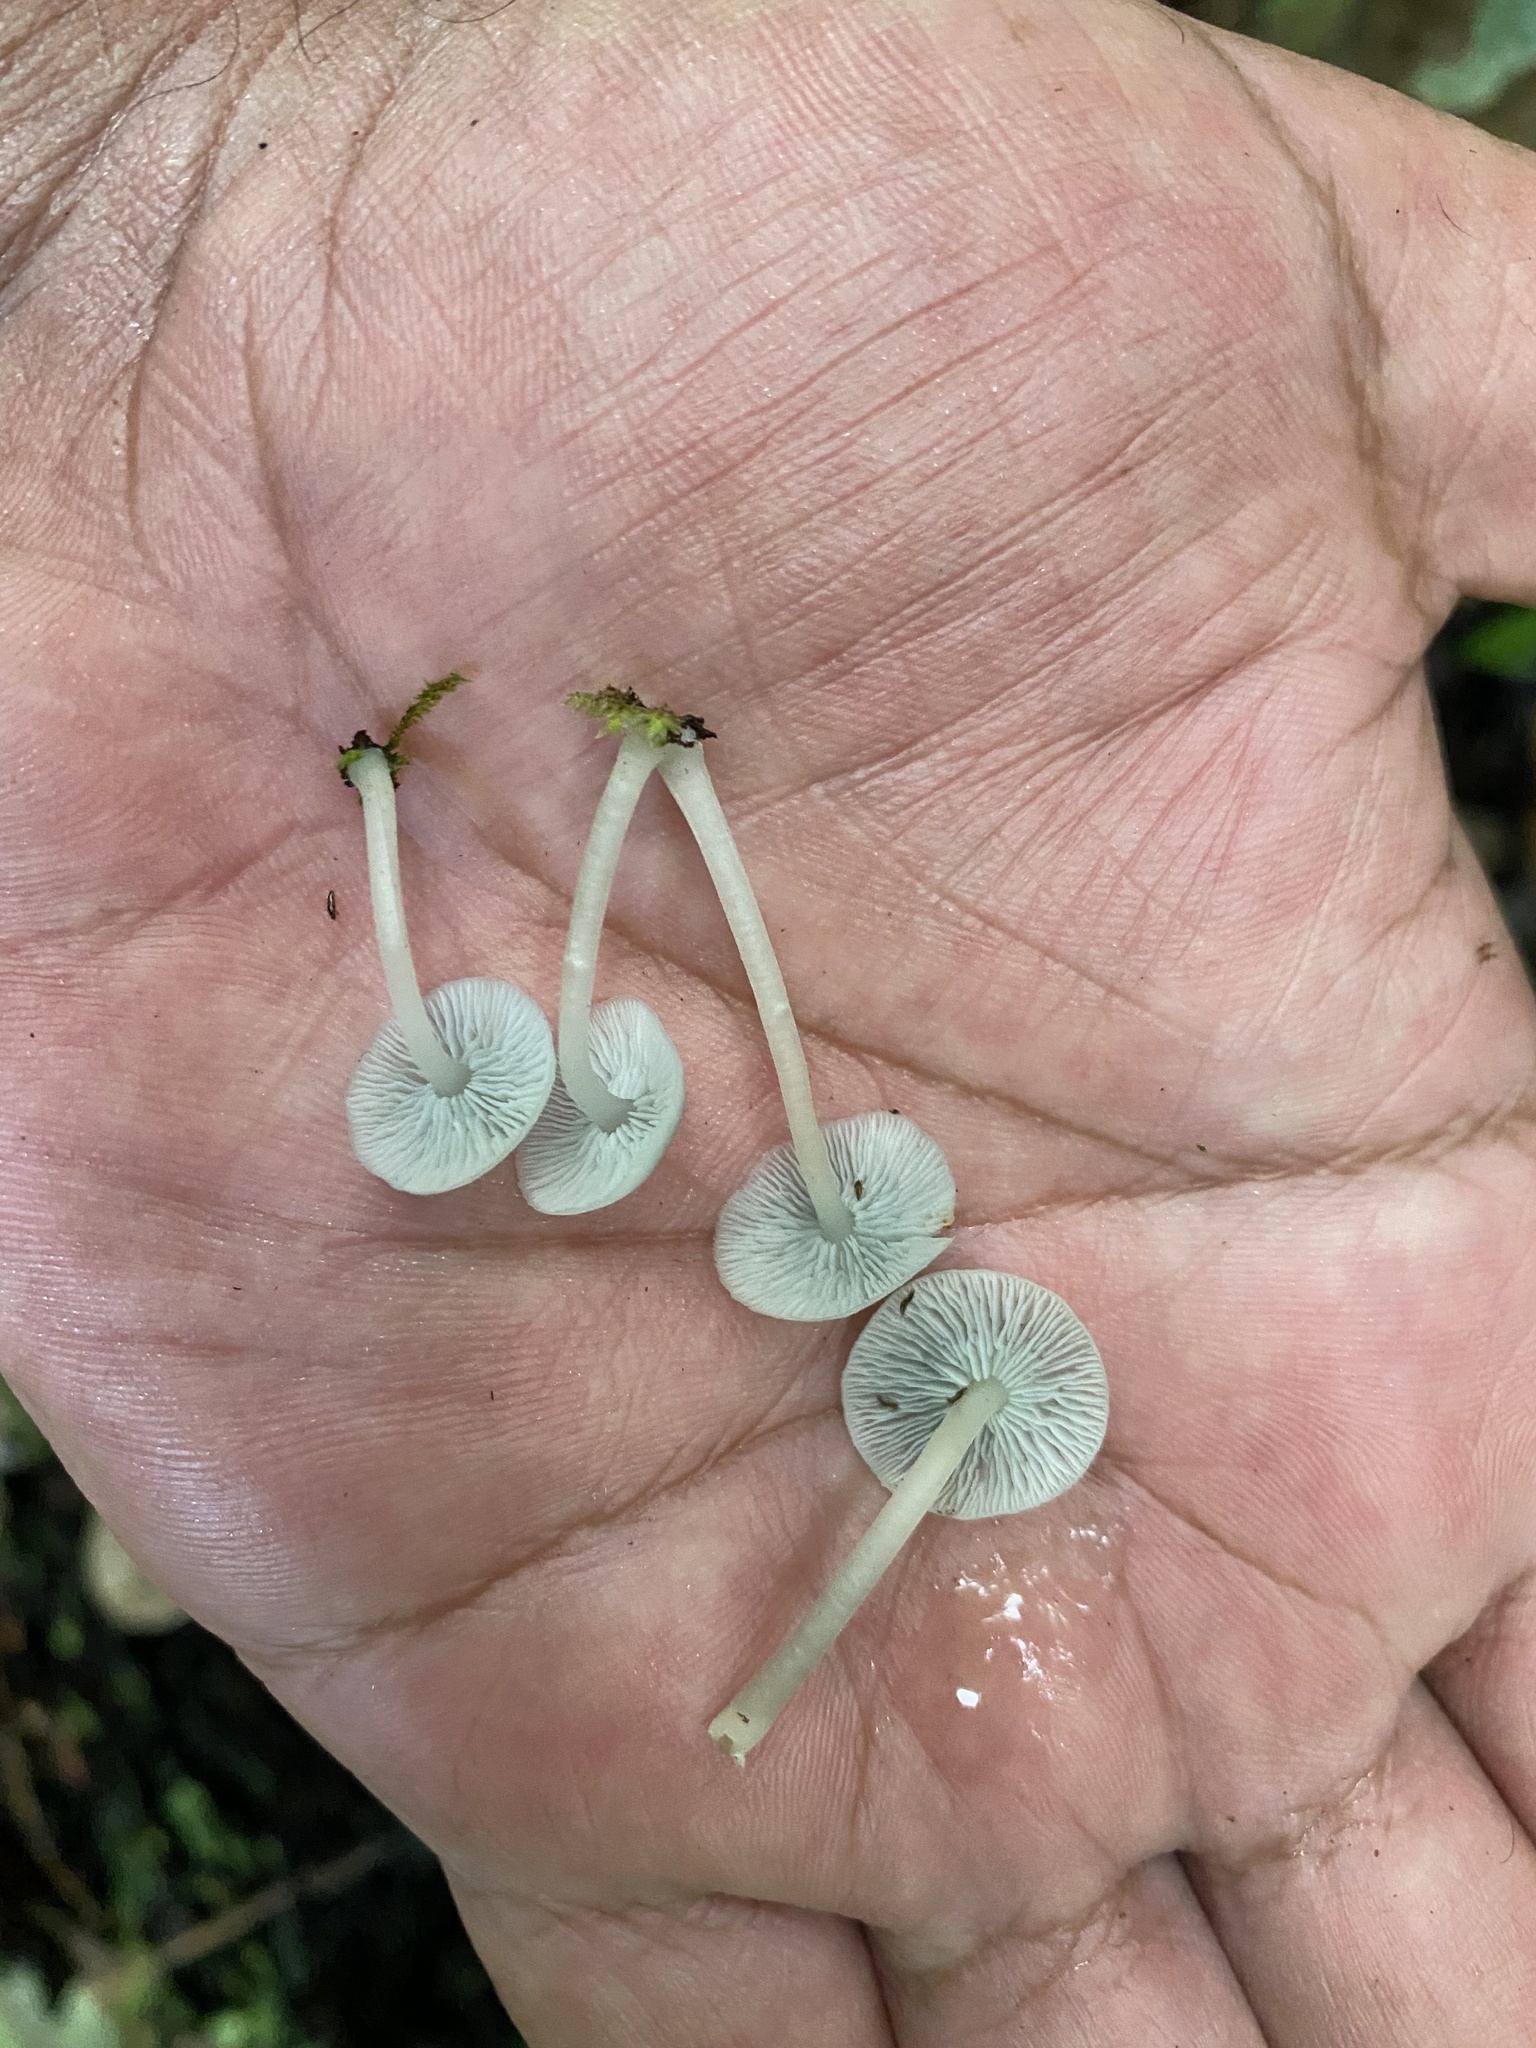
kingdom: Fungi
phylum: Basidiomycota
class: Agaricomycetes
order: Agaricales
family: Marasmiaceae
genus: Clitocybula
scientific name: Clitocybula azurea
